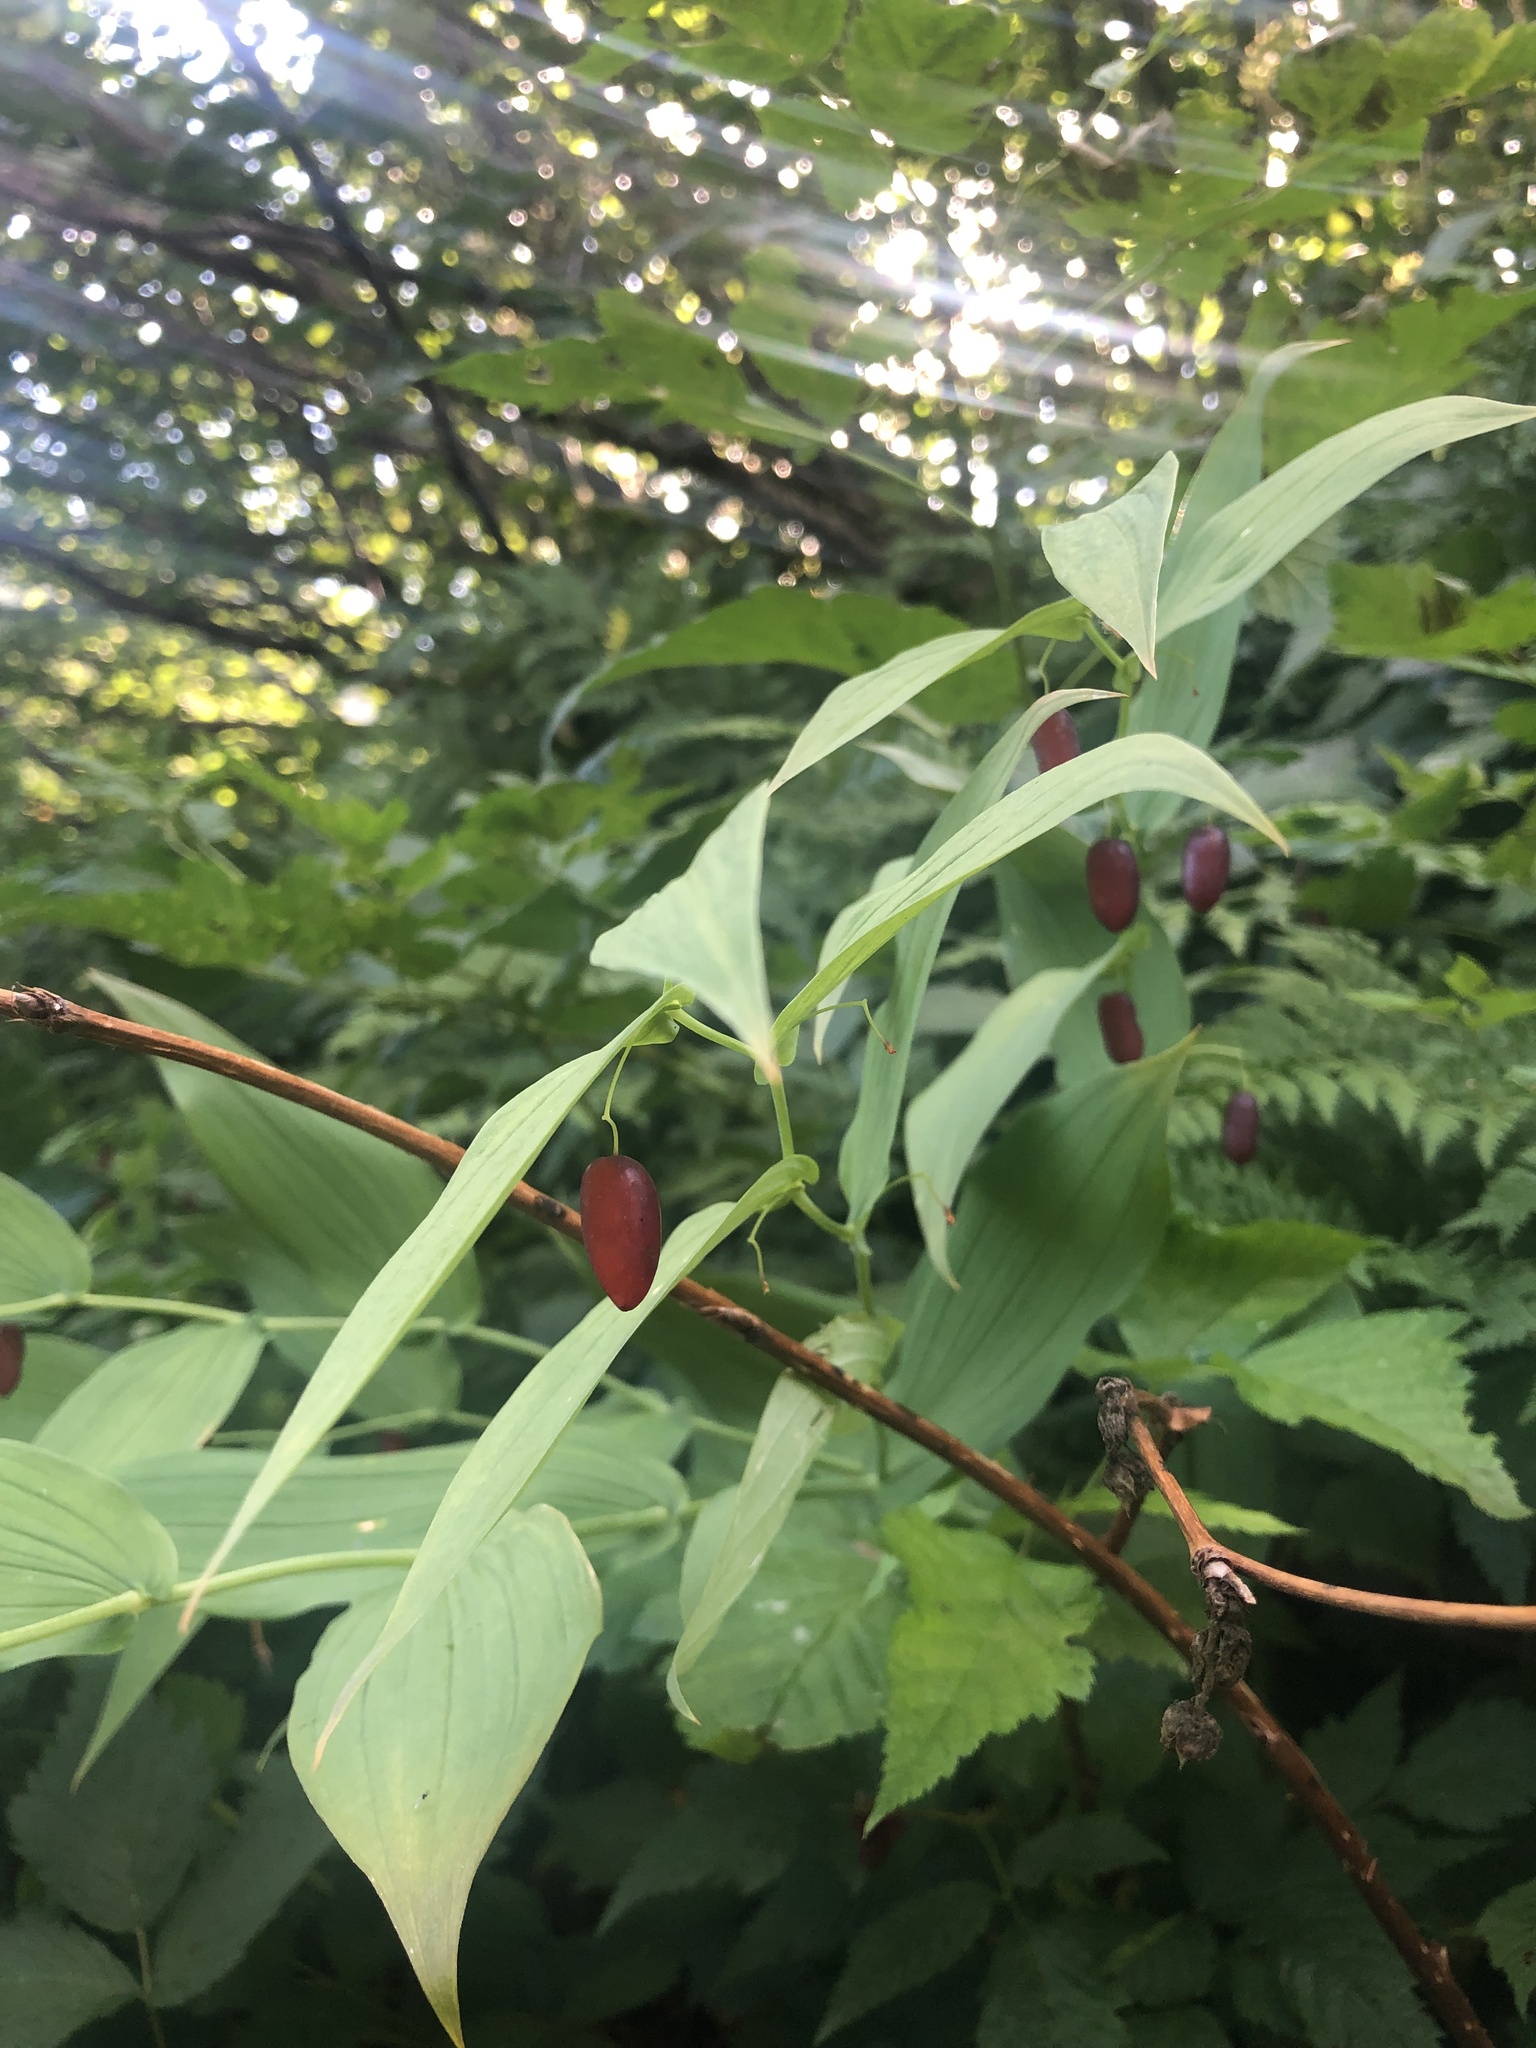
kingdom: Plantae
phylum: Tracheophyta
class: Liliopsida
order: Liliales
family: Liliaceae
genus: Streptopus
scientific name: Streptopus amplexifolius
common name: Clasp twisted stalk
